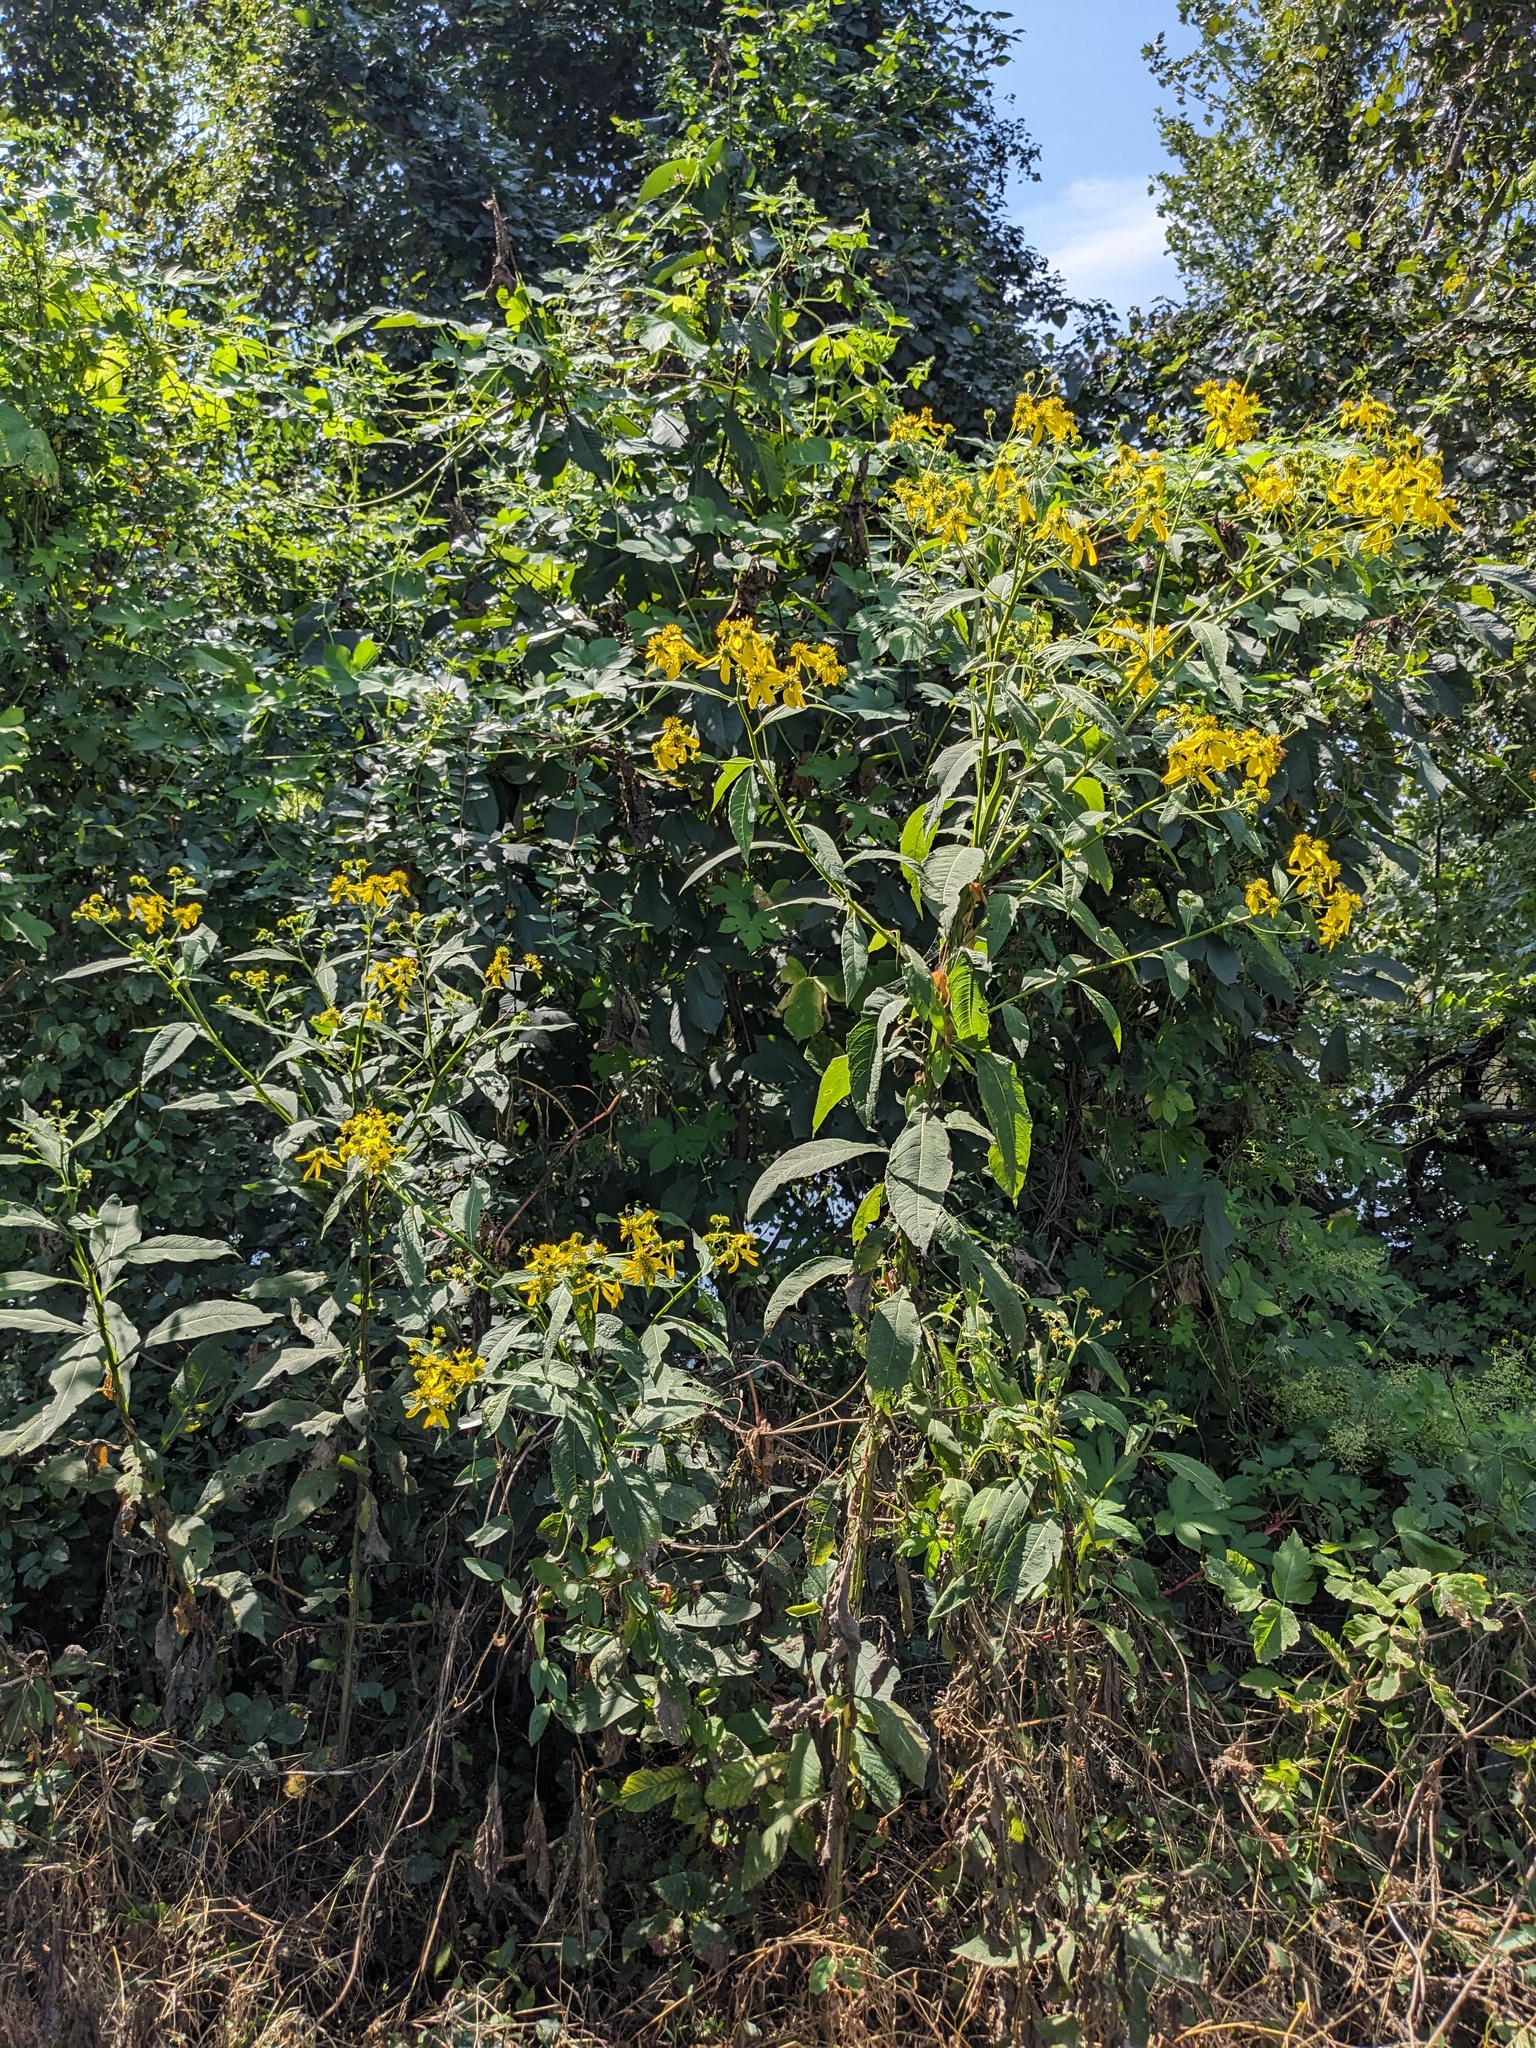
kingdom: Plantae
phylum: Tracheophyta
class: Magnoliopsida
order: Asterales
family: Asteraceae
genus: Verbesina
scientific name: Verbesina alternifolia
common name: Wingstem
